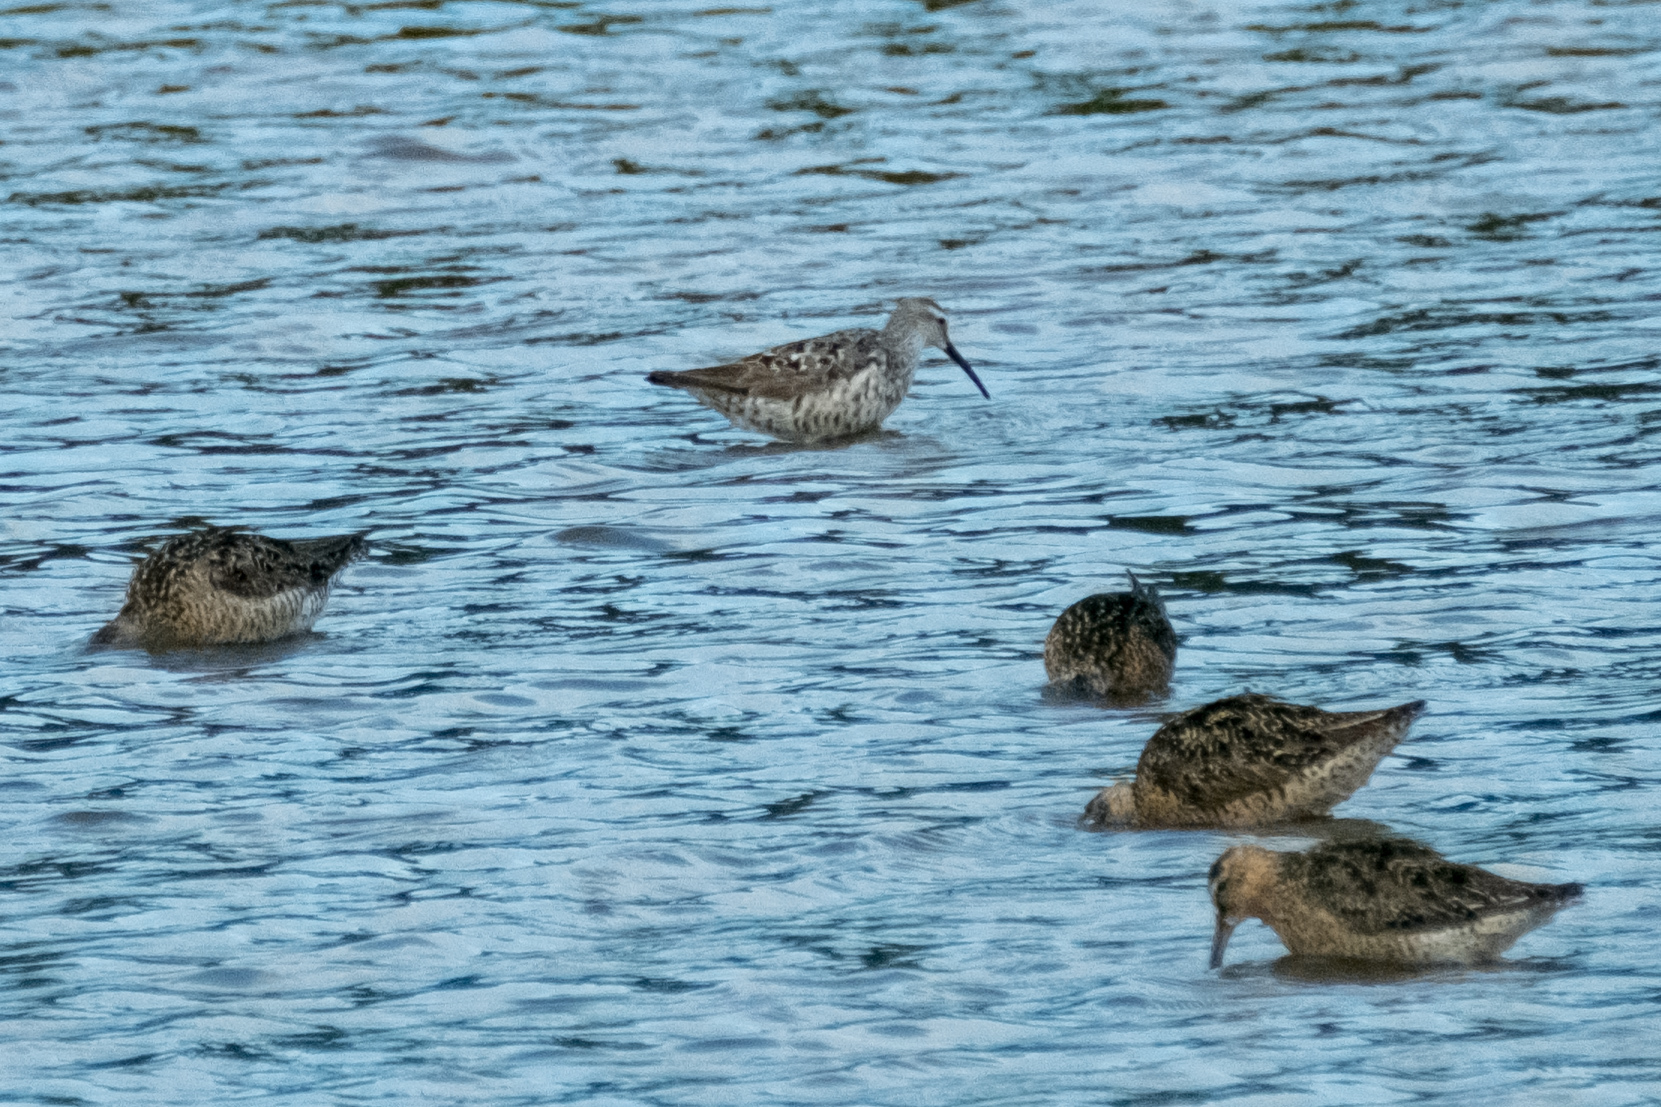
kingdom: Animalia
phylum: Chordata
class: Aves
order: Charadriiformes
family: Scolopacidae
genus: Calidris
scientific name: Calidris himantopus
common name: Stilt sandpiper
